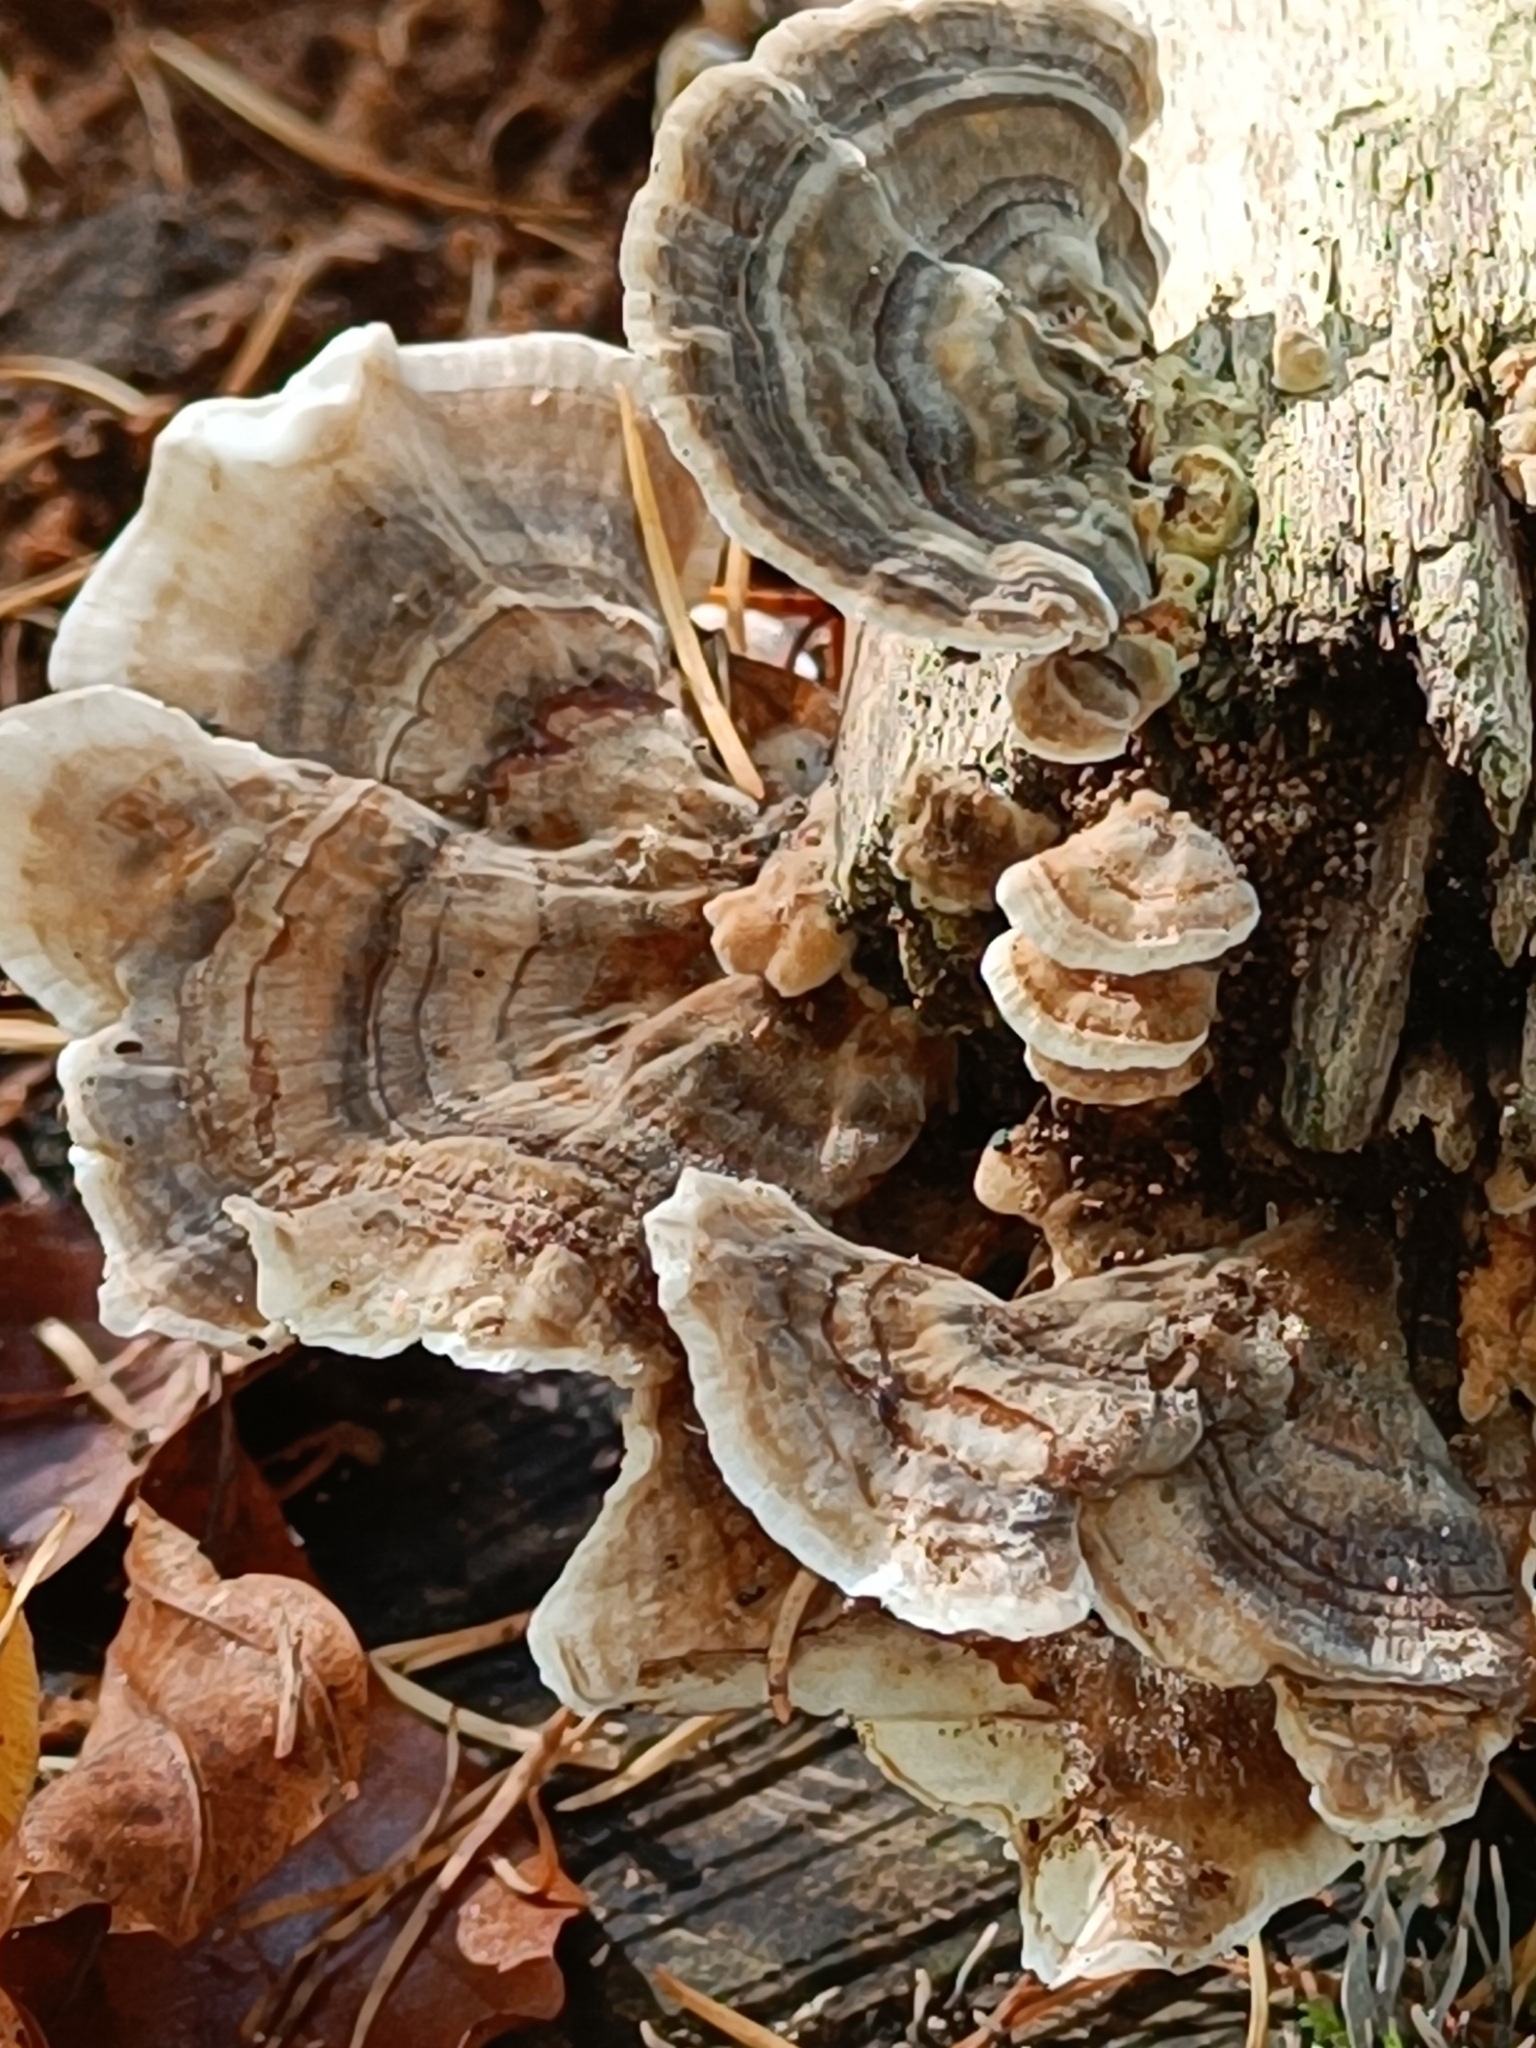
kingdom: Fungi
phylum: Basidiomycota
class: Agaricomycetes
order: Polyporales
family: Polyporaceae
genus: Trametes
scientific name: Trametes versicolor
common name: Turkeytail
